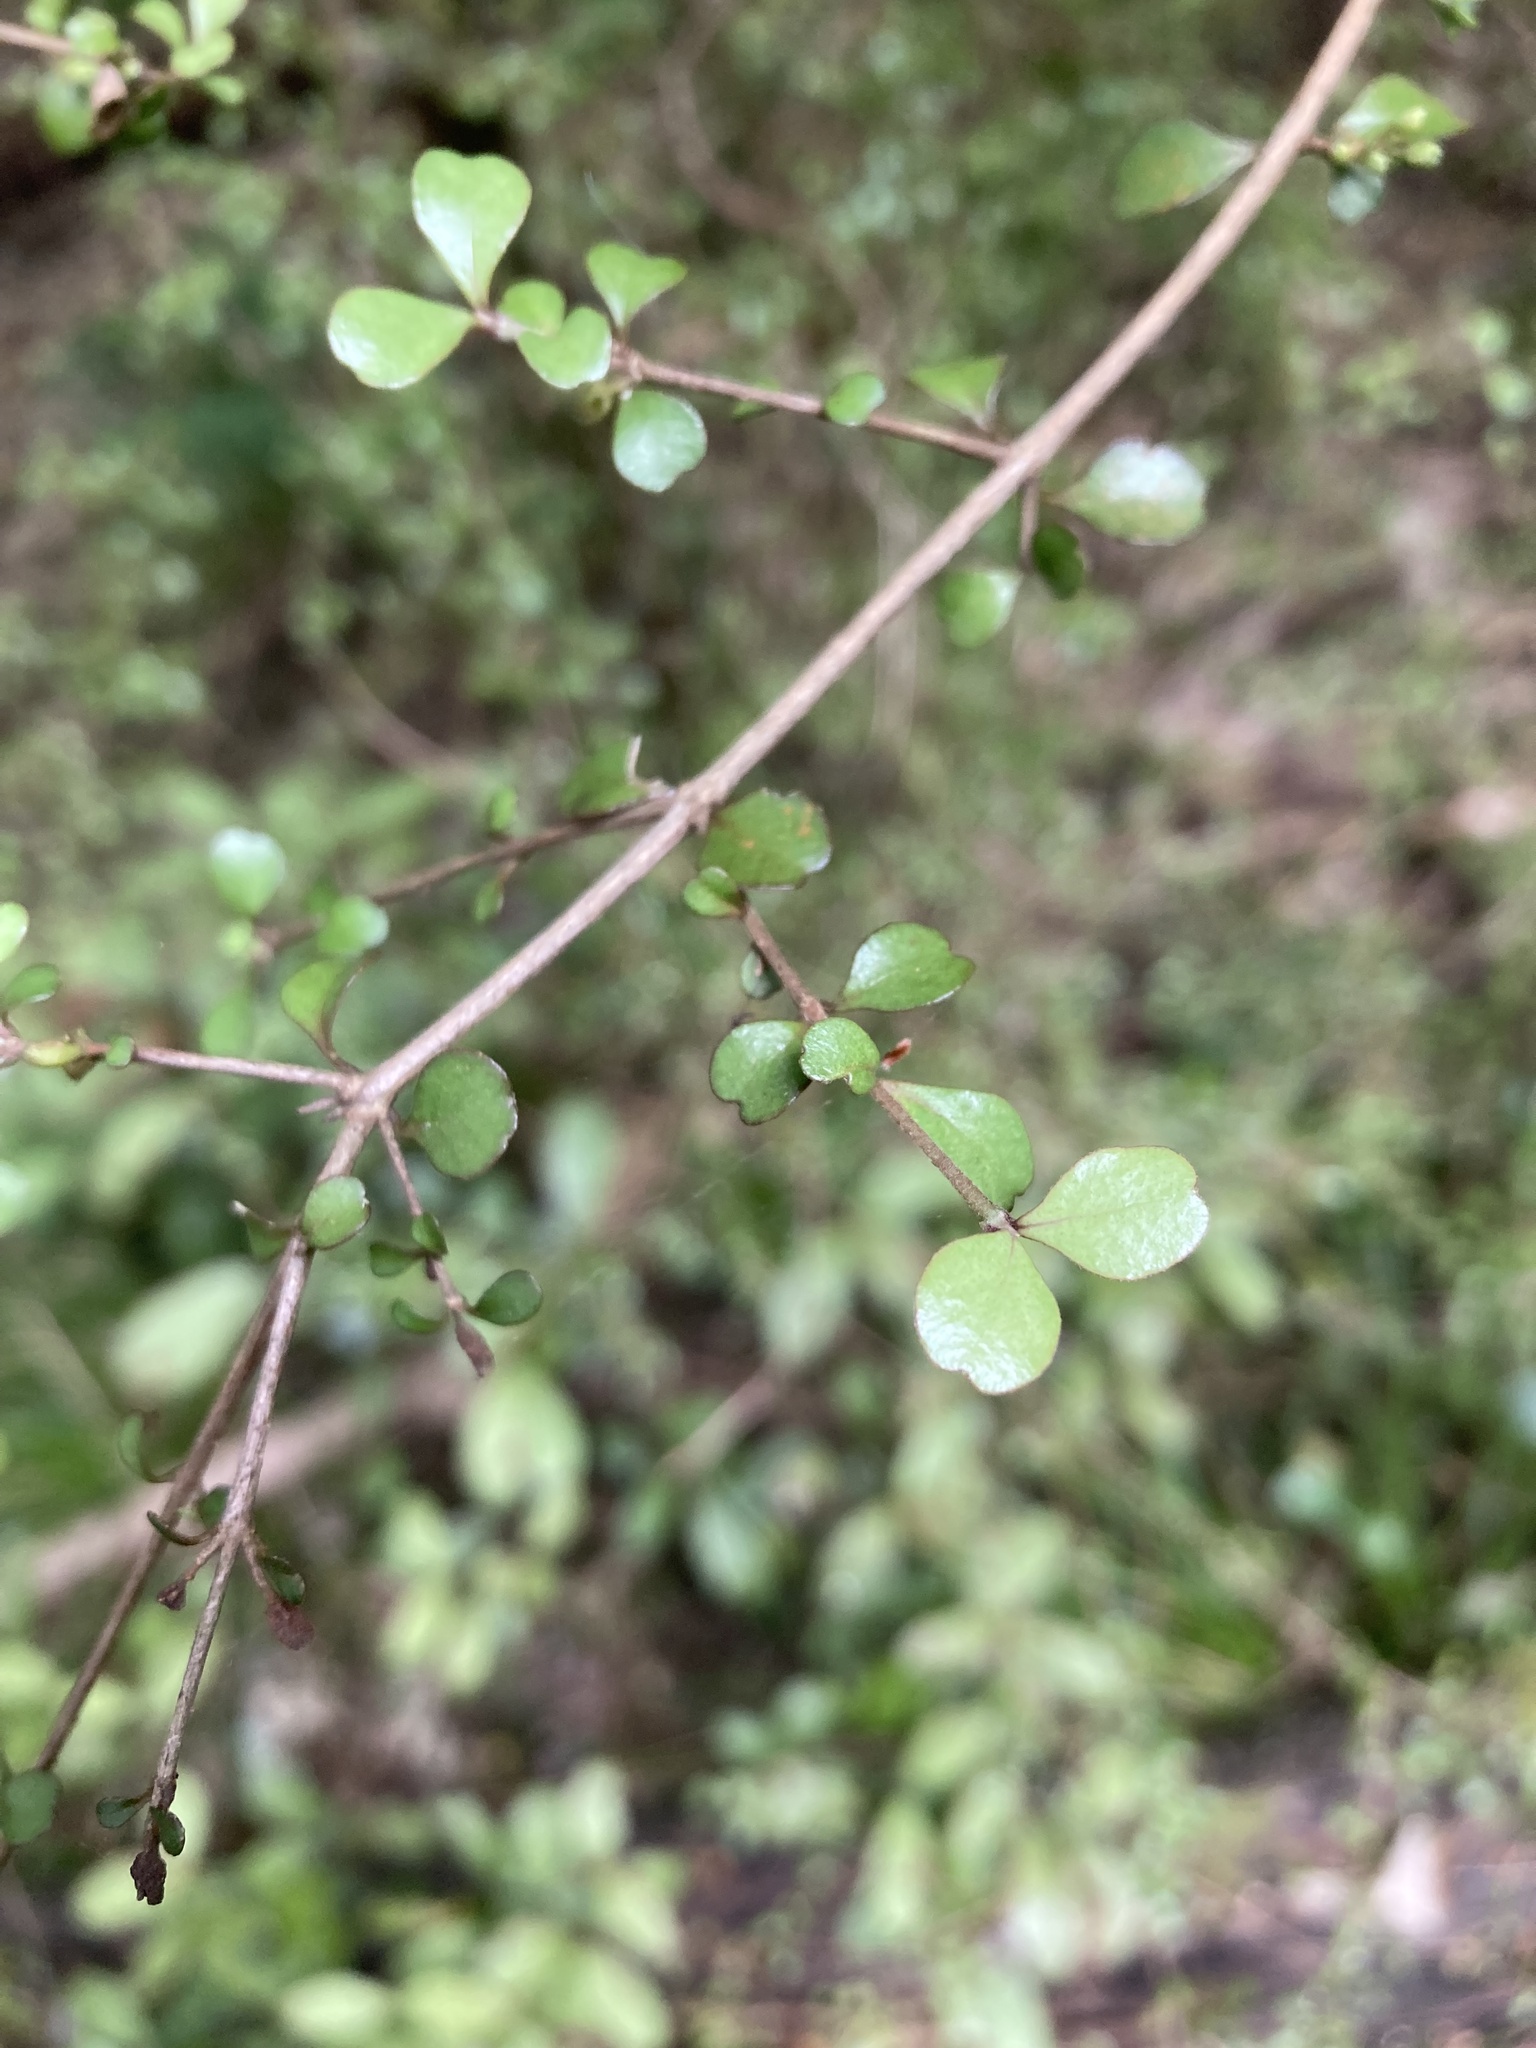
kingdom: Plantae
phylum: Tracheophyta
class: Magnoliopsida
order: Myrtales
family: Myrtaceae
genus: Lophomyrtus
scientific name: Lophomyrtus obcordata
